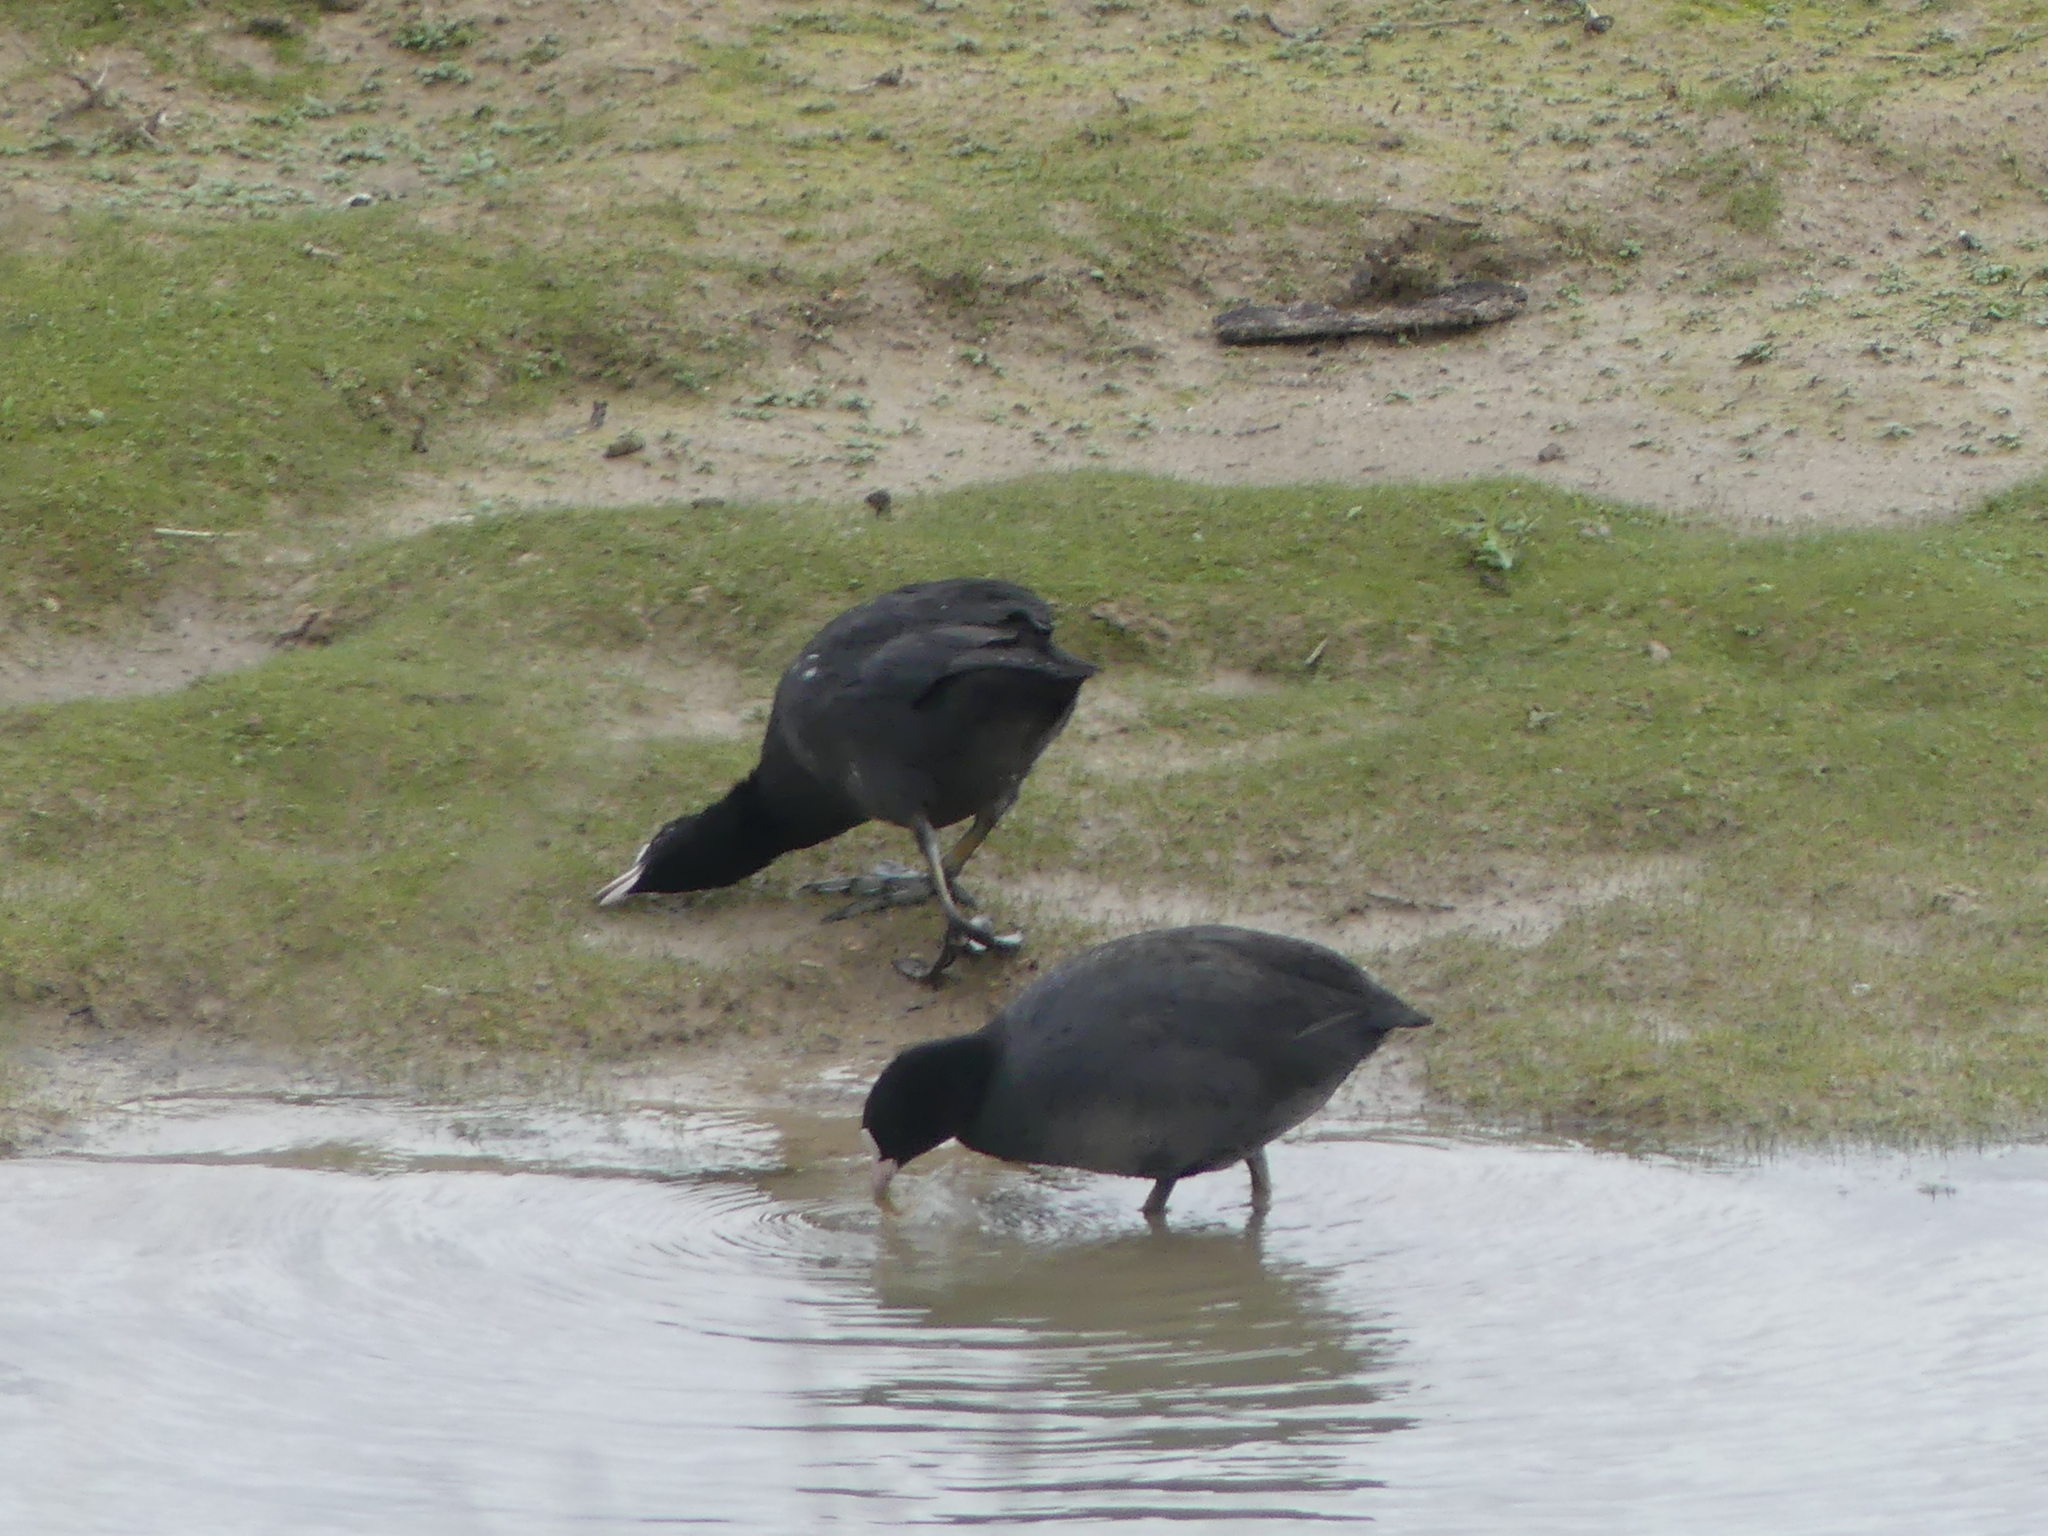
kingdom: Animalia
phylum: Chordata
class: Aves
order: Gruiformes
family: Rallidae
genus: Fulica
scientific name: Fulica atra
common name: Eurasian coot
